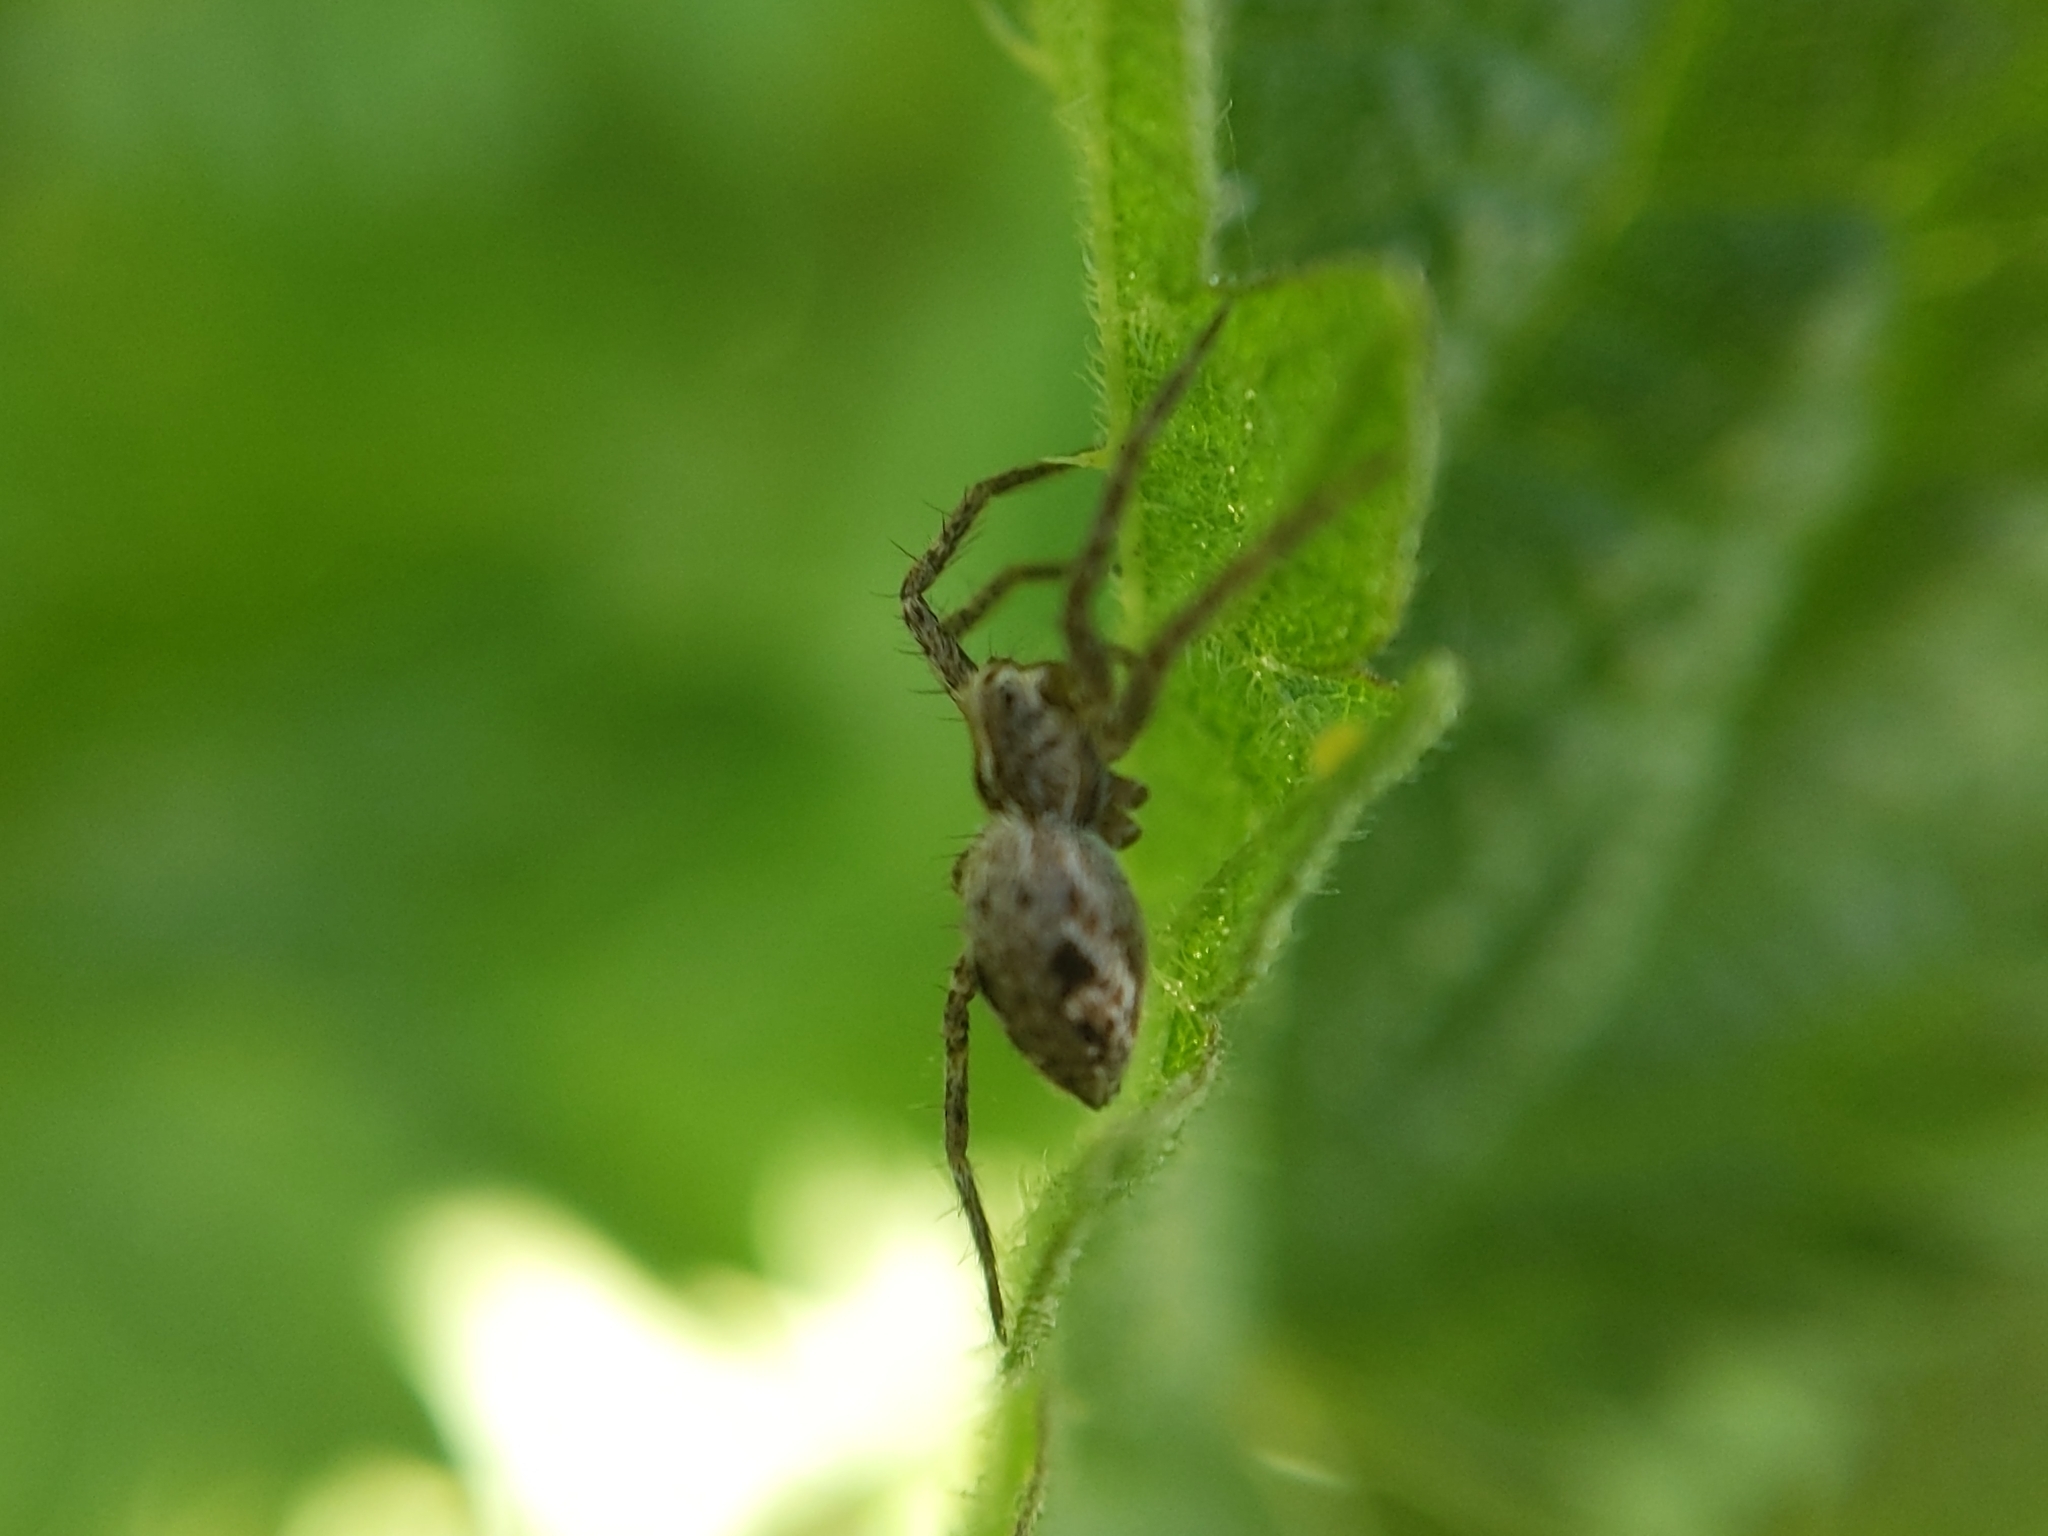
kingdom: Animalia
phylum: Arthropoda
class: Arachnida
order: Araneae
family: Pisauridae
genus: Pisaura
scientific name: Pisaura mirabilis
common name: Tent spider
